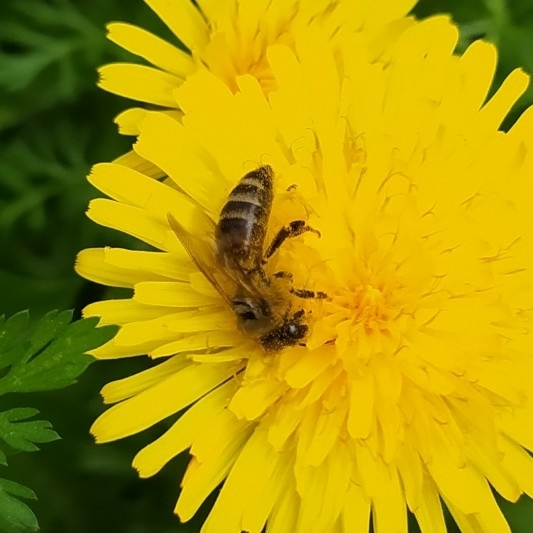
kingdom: Animalia
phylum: Arthropoda
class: Insecta
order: Hymenoptera
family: Apidae
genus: Apis
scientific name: Apis mellifera
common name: Honey bee
